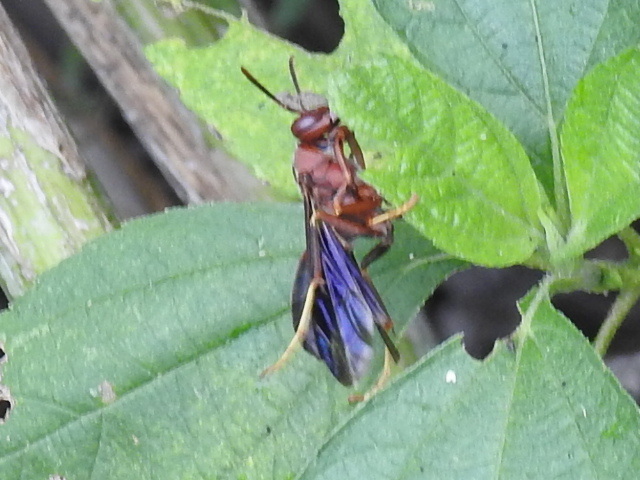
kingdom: Animalia
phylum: Arthropoda
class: Insecta
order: Hymenoptera
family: Eumenidae
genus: Polistes
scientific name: Polistes metricus
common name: Metric paper wasp
